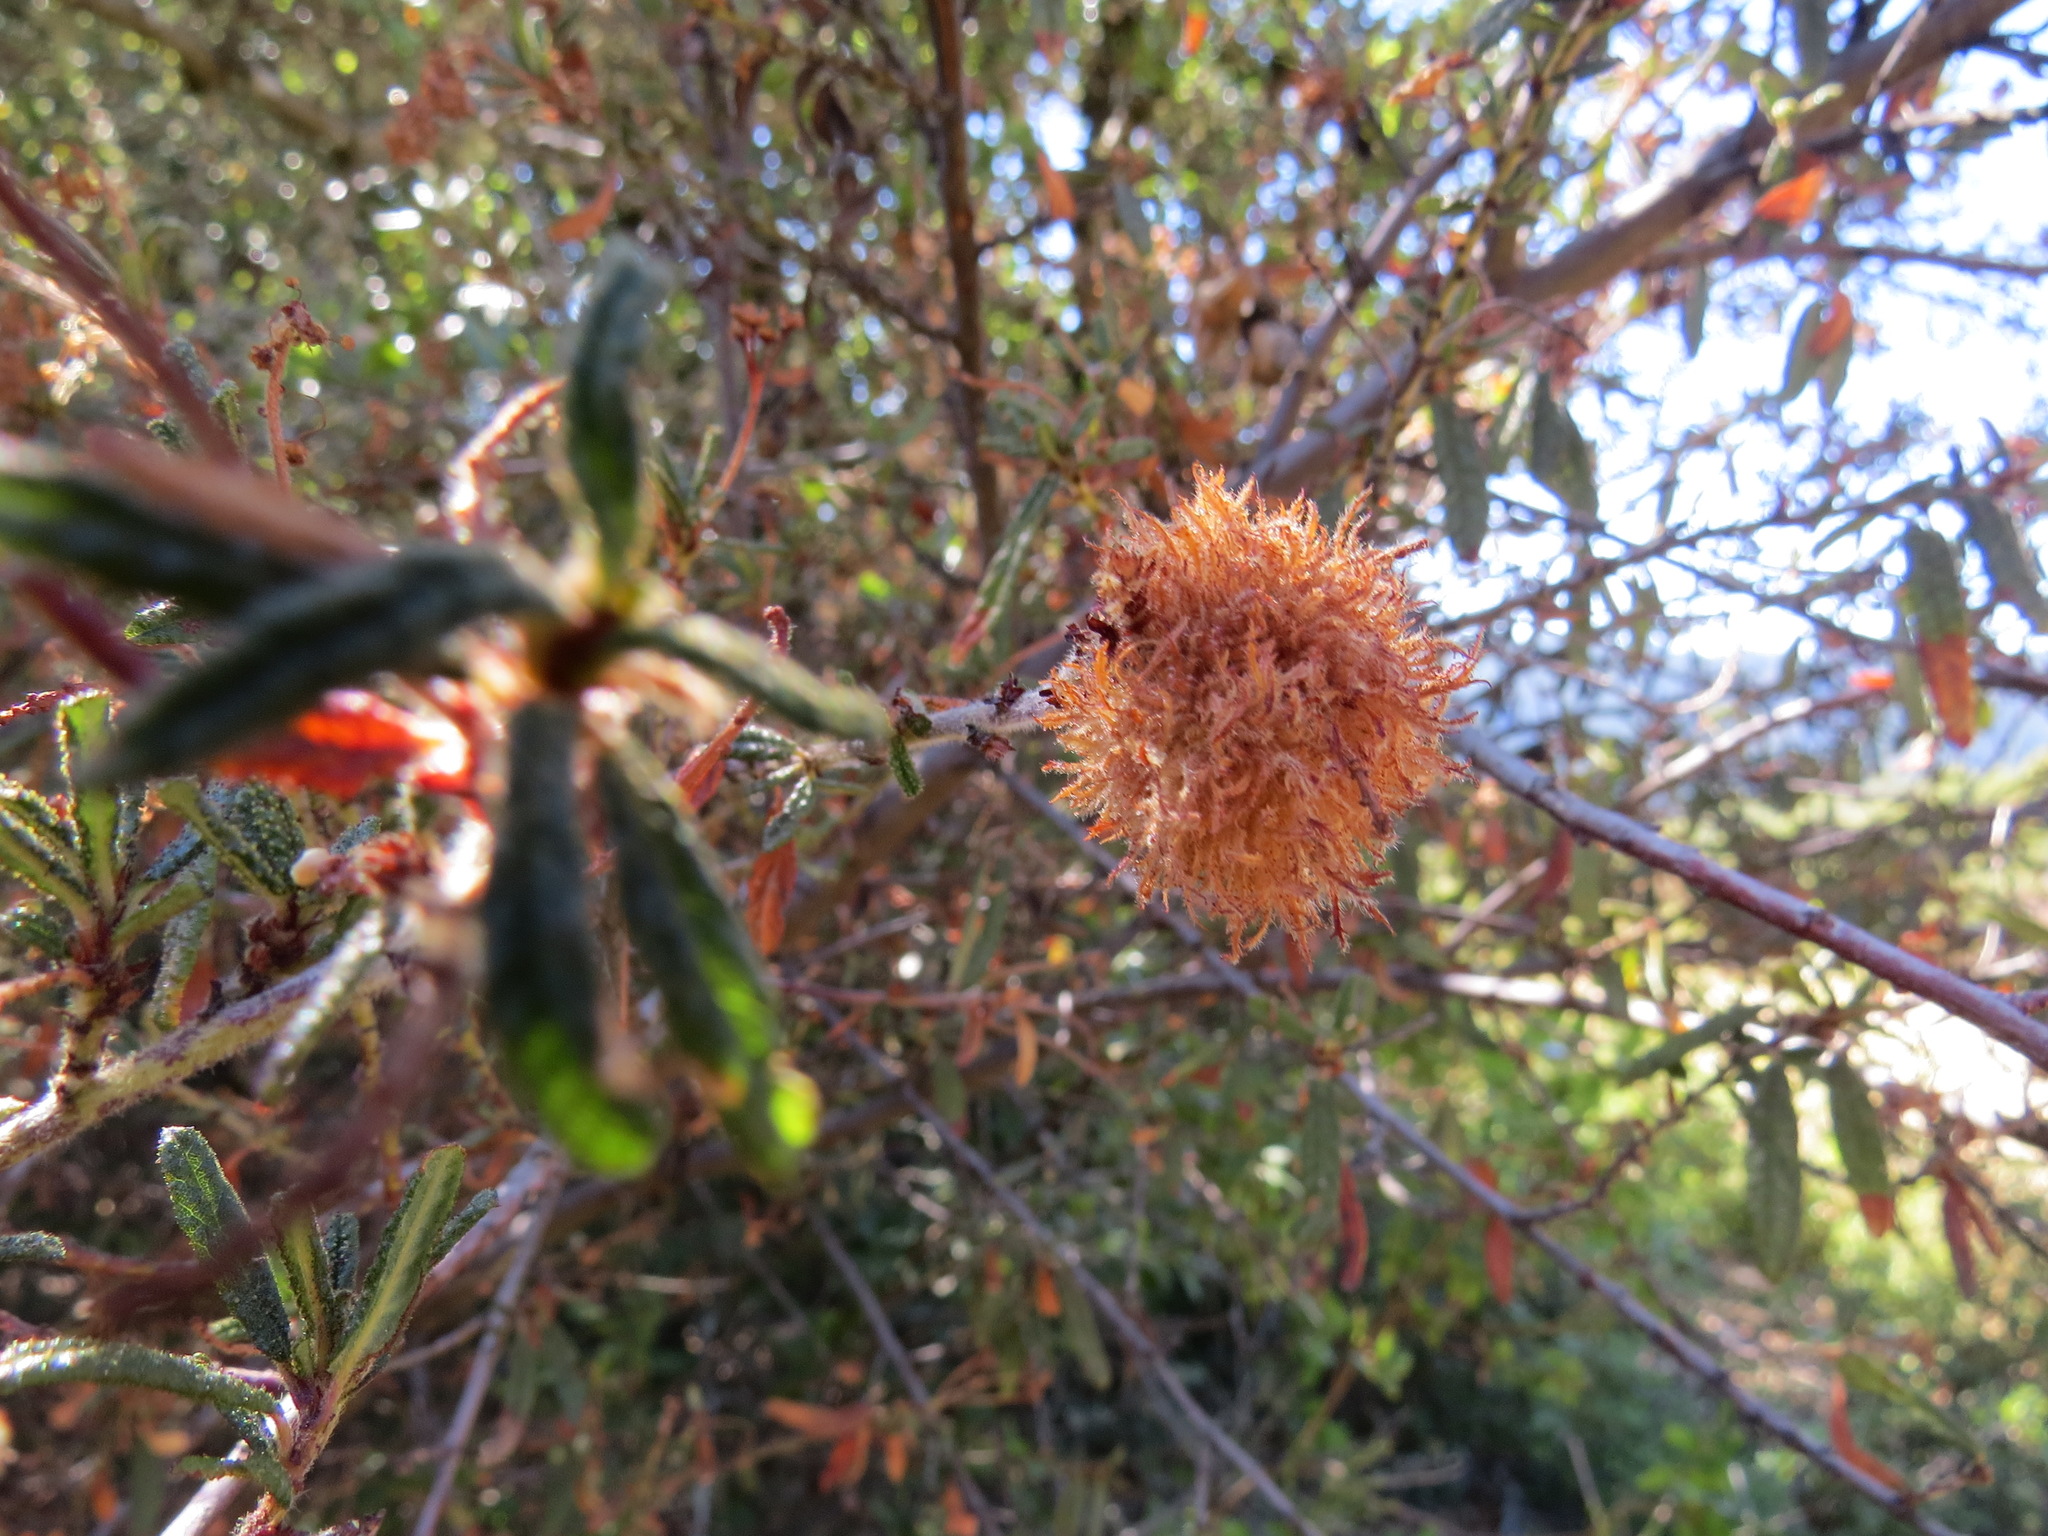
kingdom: Animalia
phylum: Arthropoda
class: Insecta
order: Diptera
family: Cecidomyiidae
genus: Asphondylia
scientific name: Asphondylia ceanothi
